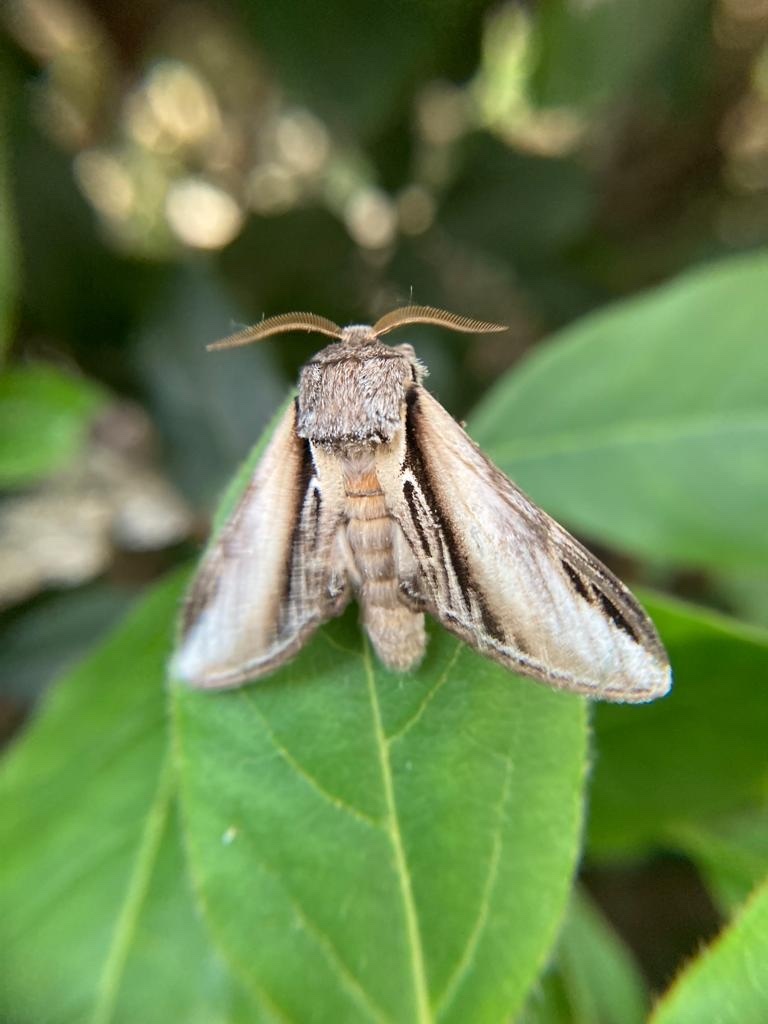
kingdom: Animalia
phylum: Arthropoda
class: Insecta
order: Lepidoptera
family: Notodontidae
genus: Pheosia
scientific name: Pheosia tremula
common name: Swallow prominent
